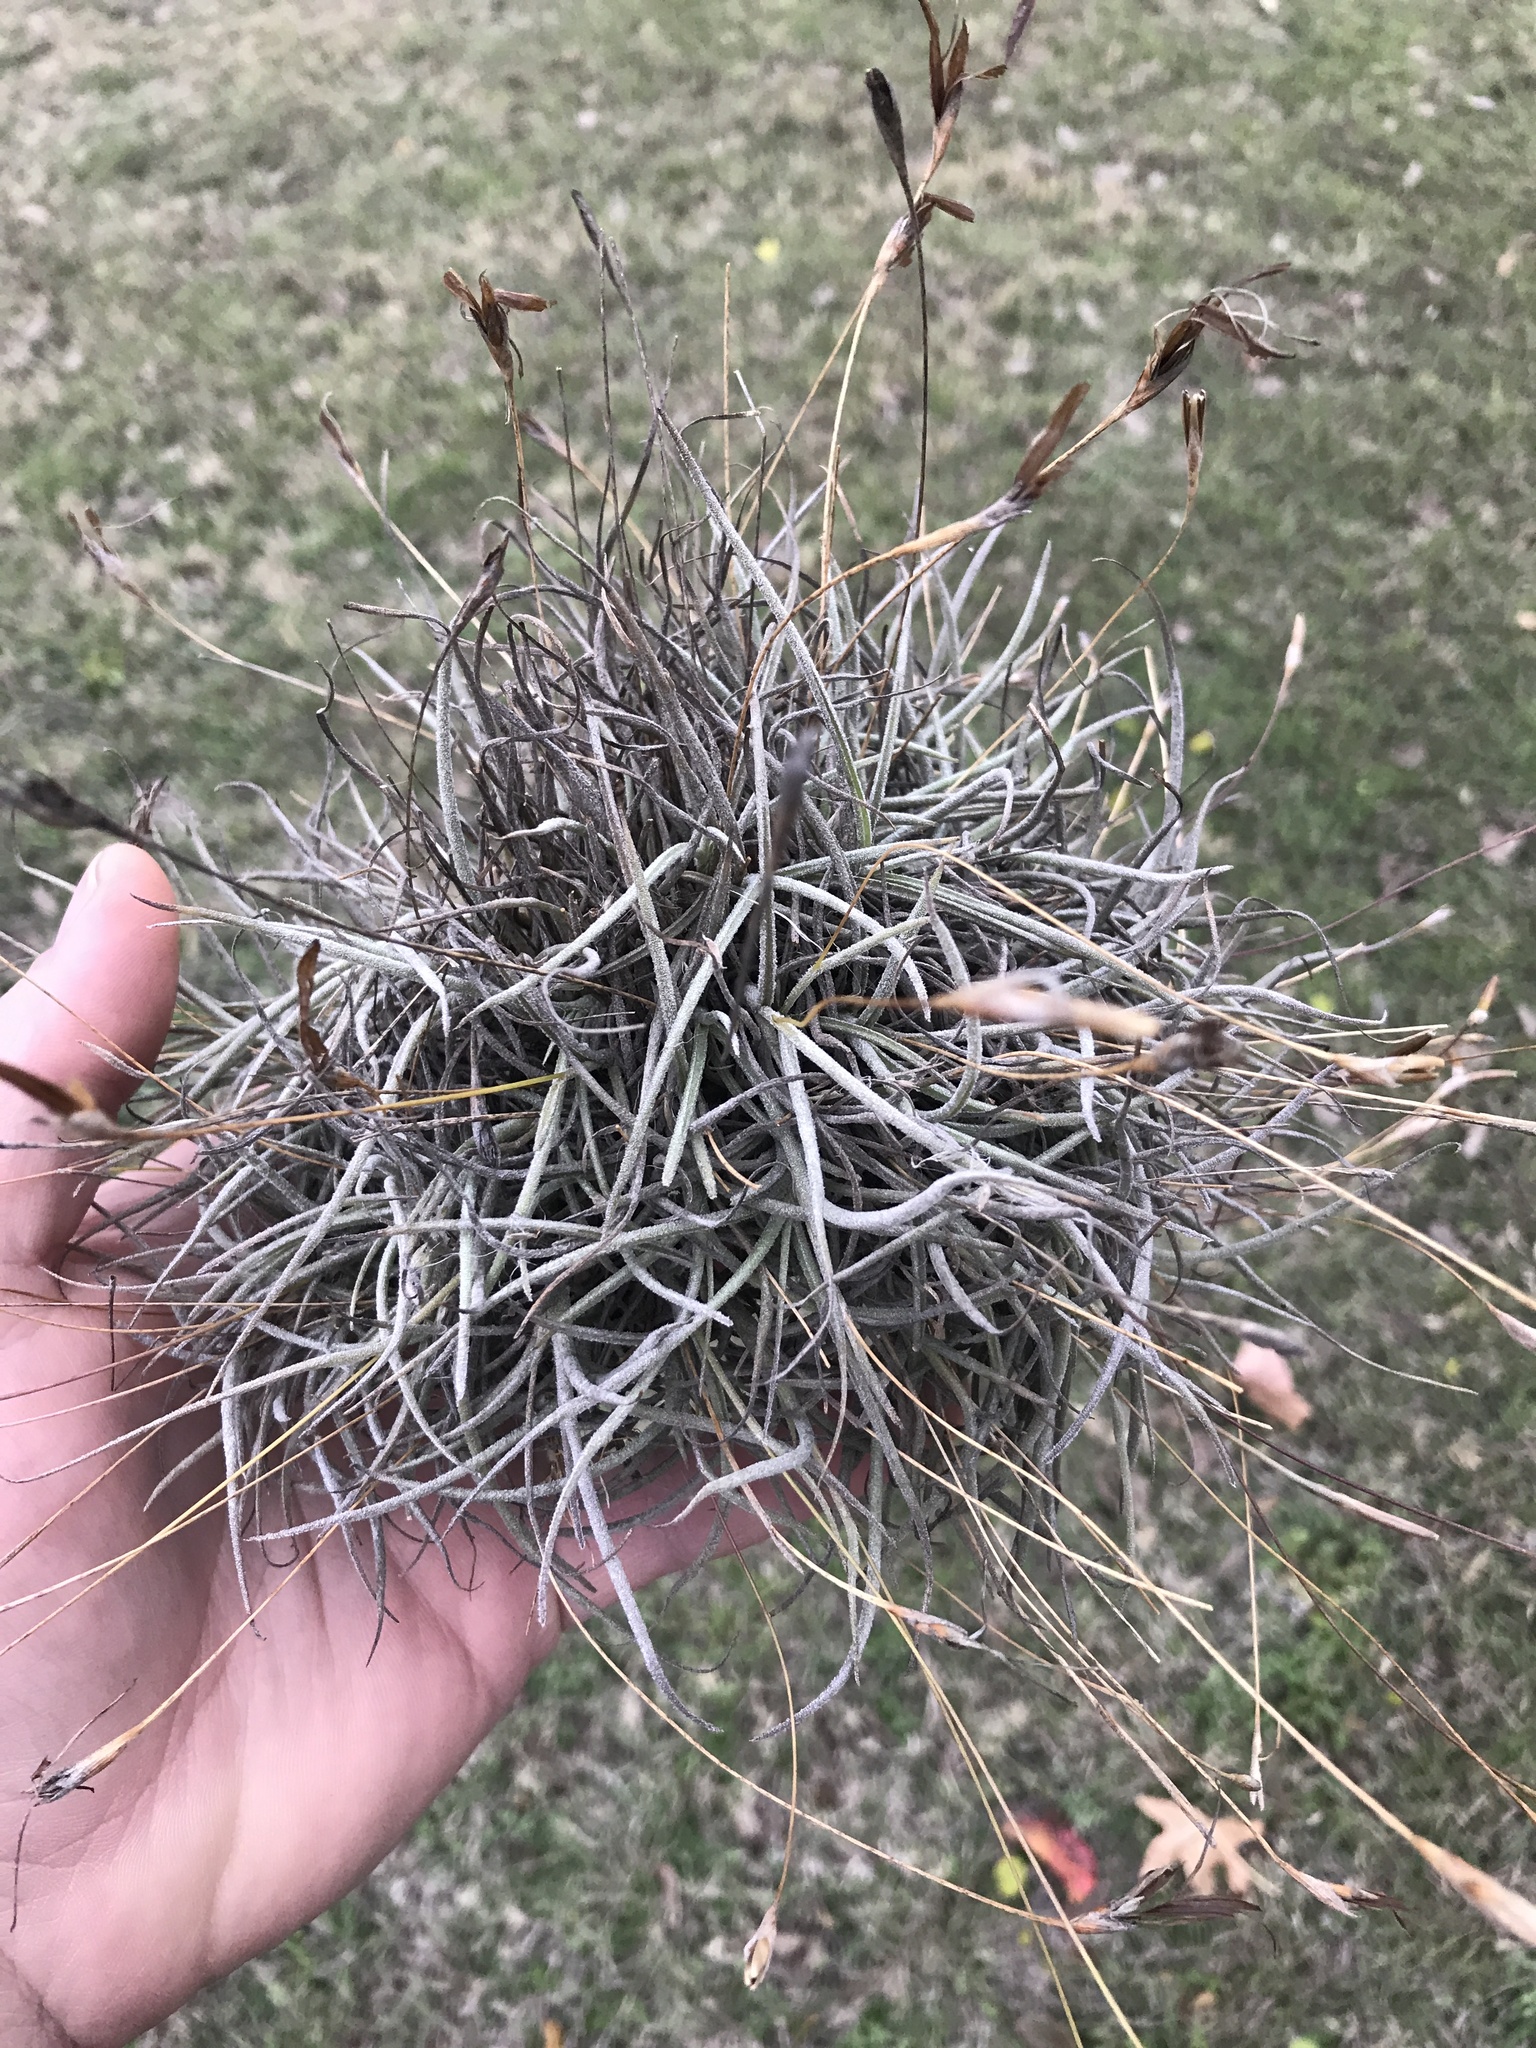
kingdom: Plantae
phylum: Tracheophyta
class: Liliopsida
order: Poales
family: Bromeliaceae
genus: Tillandsia
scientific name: Tillandsia recurvata
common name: Small ballmoss
